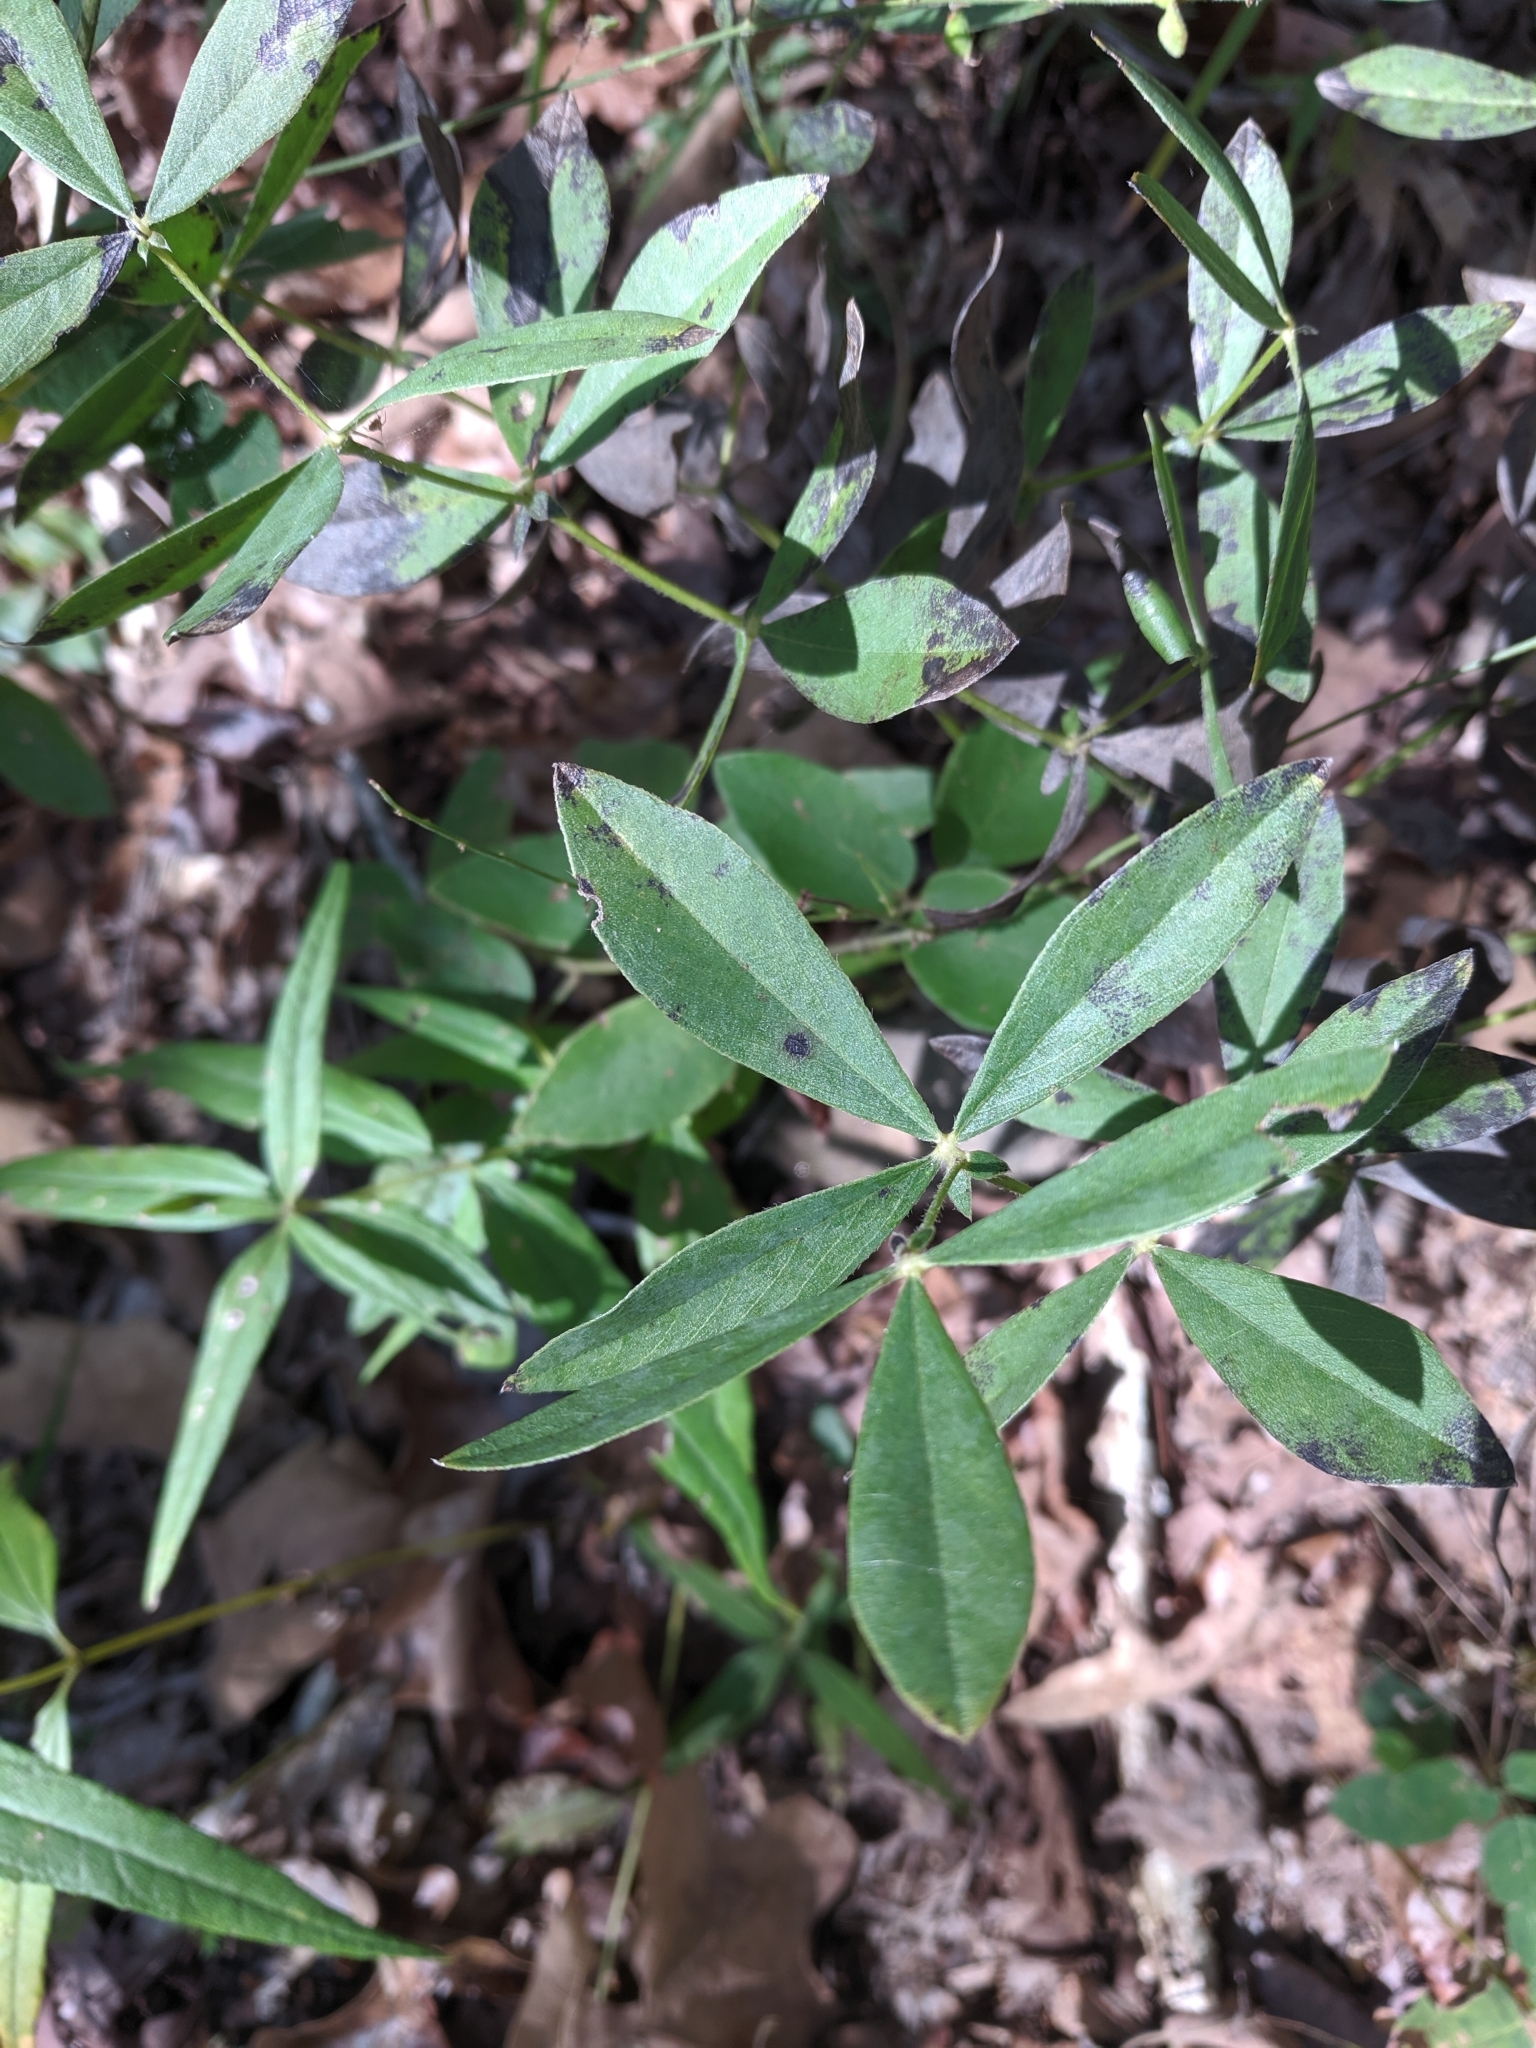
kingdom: Plantae
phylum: Tracheophyta
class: Magnoliopsida
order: Fabales
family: Fabaceae
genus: Baptisia
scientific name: Baptisia bracteata
